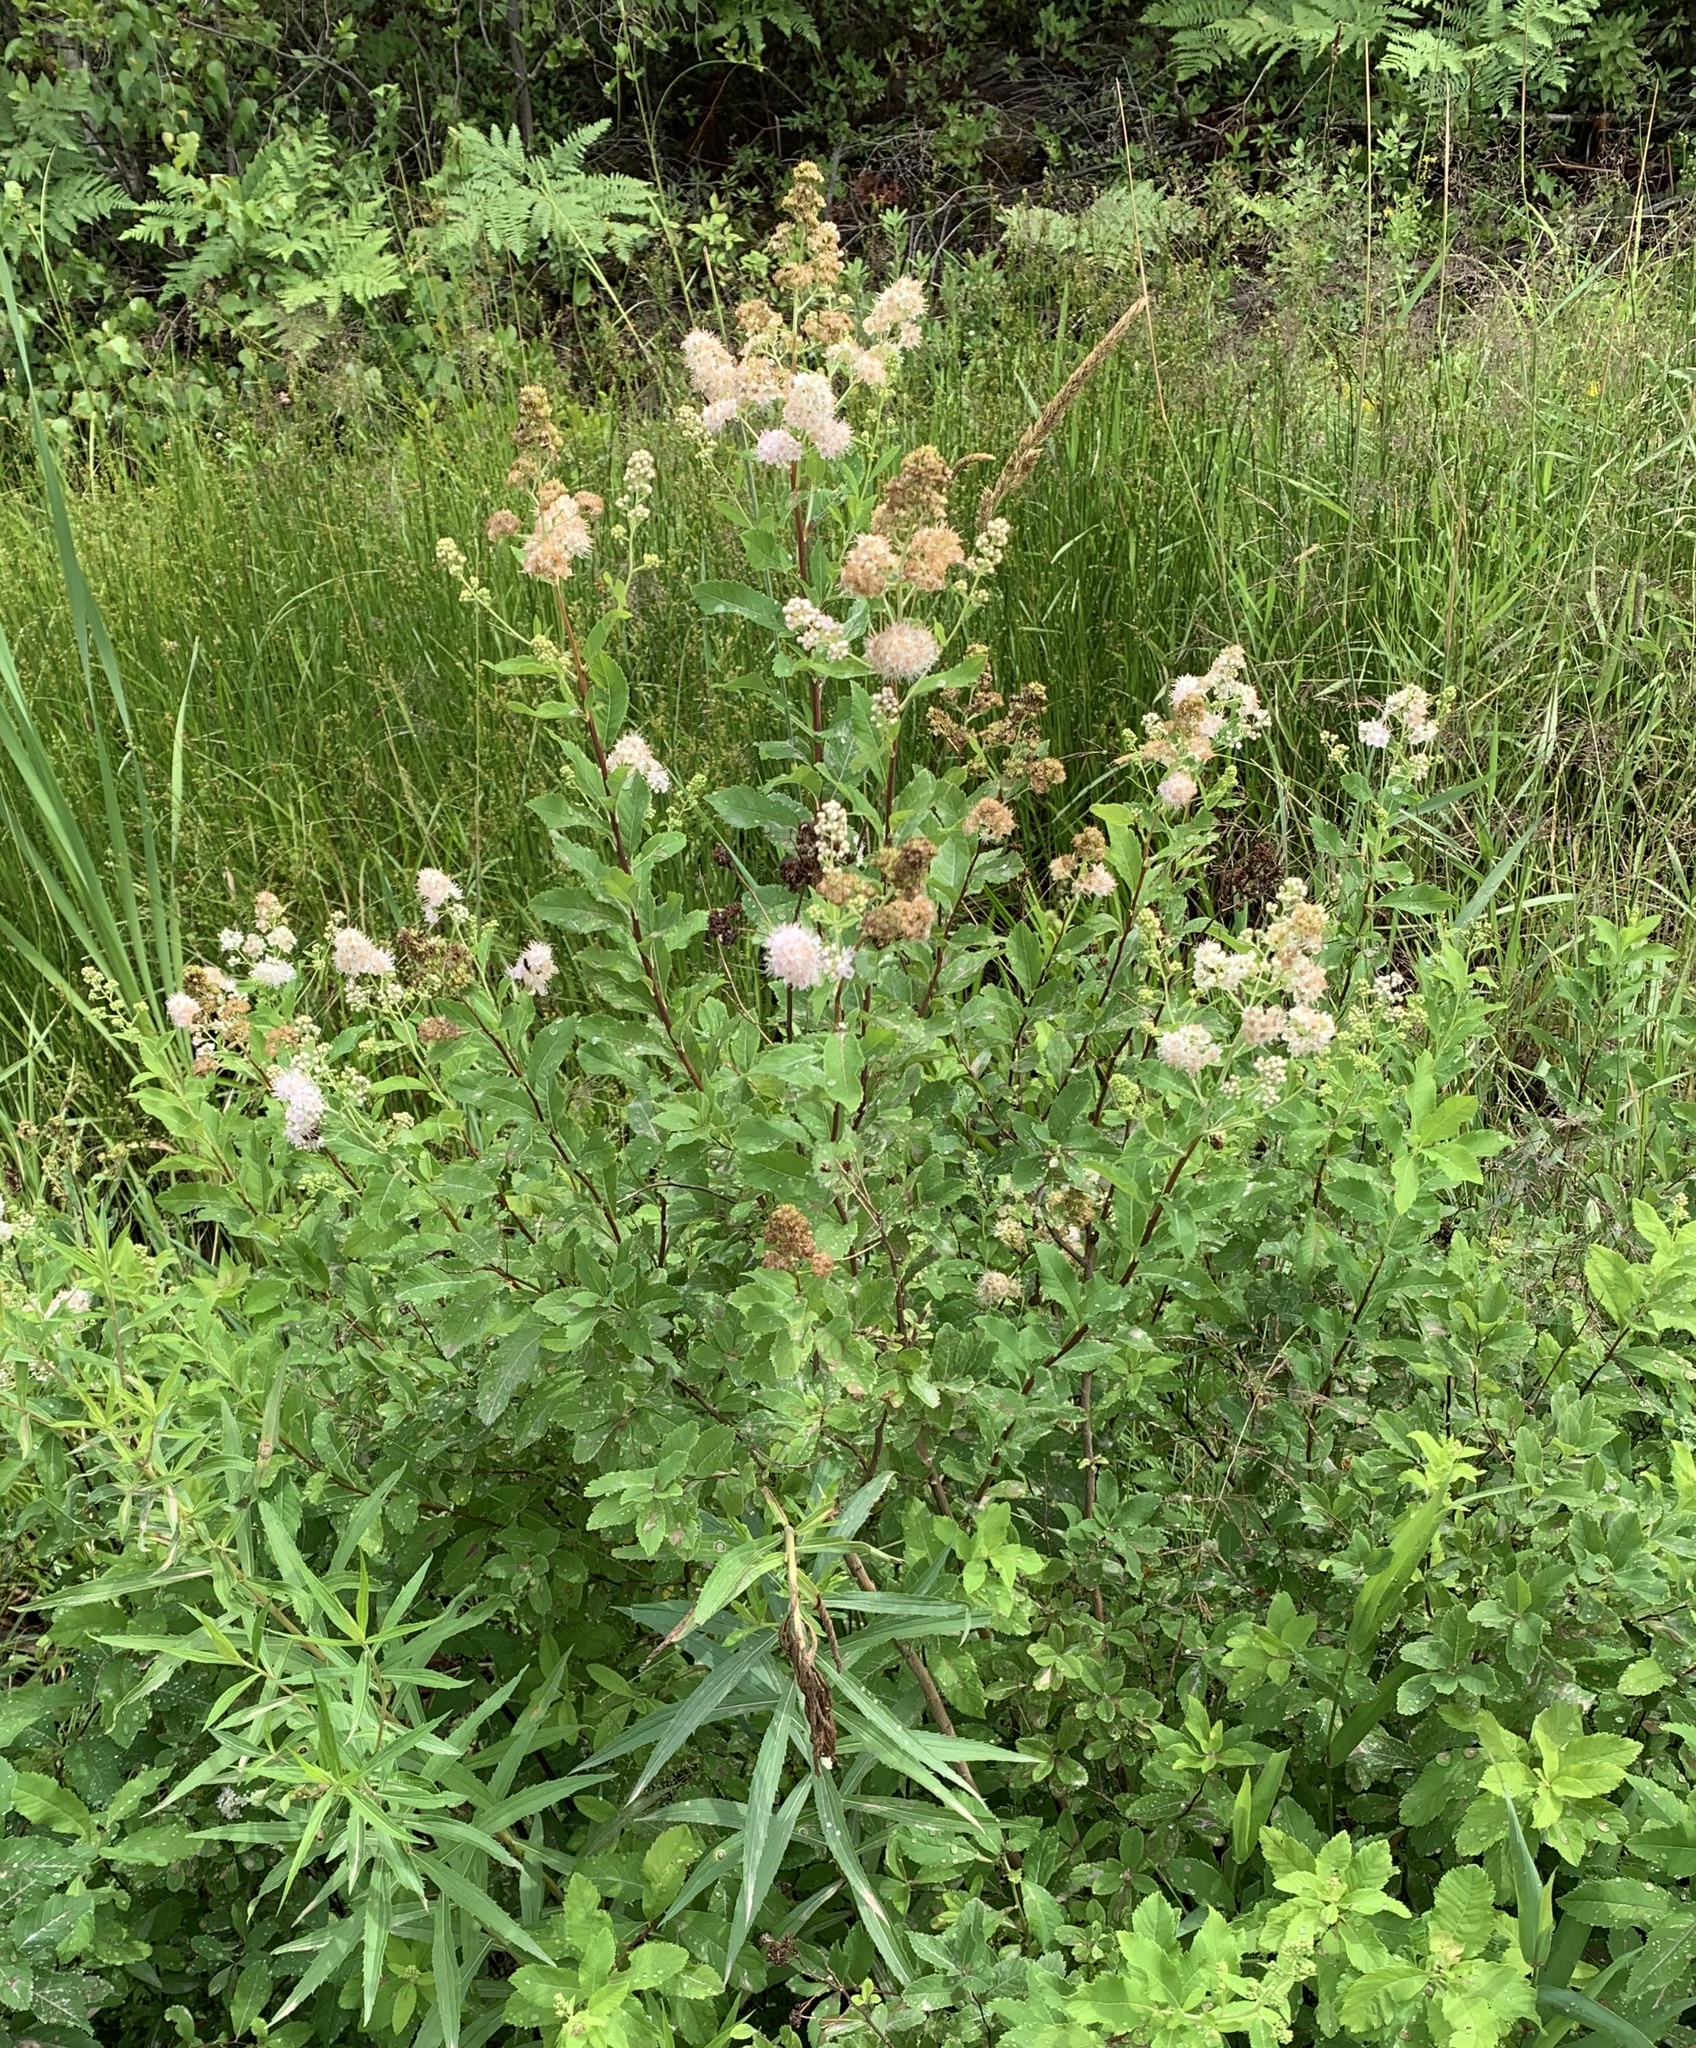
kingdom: Plantae
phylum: Tracheophyta
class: Magnoliopsida
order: Rosales
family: Rosaceae
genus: Spiraea
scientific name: Spiraea alba
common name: Pale bridewort
